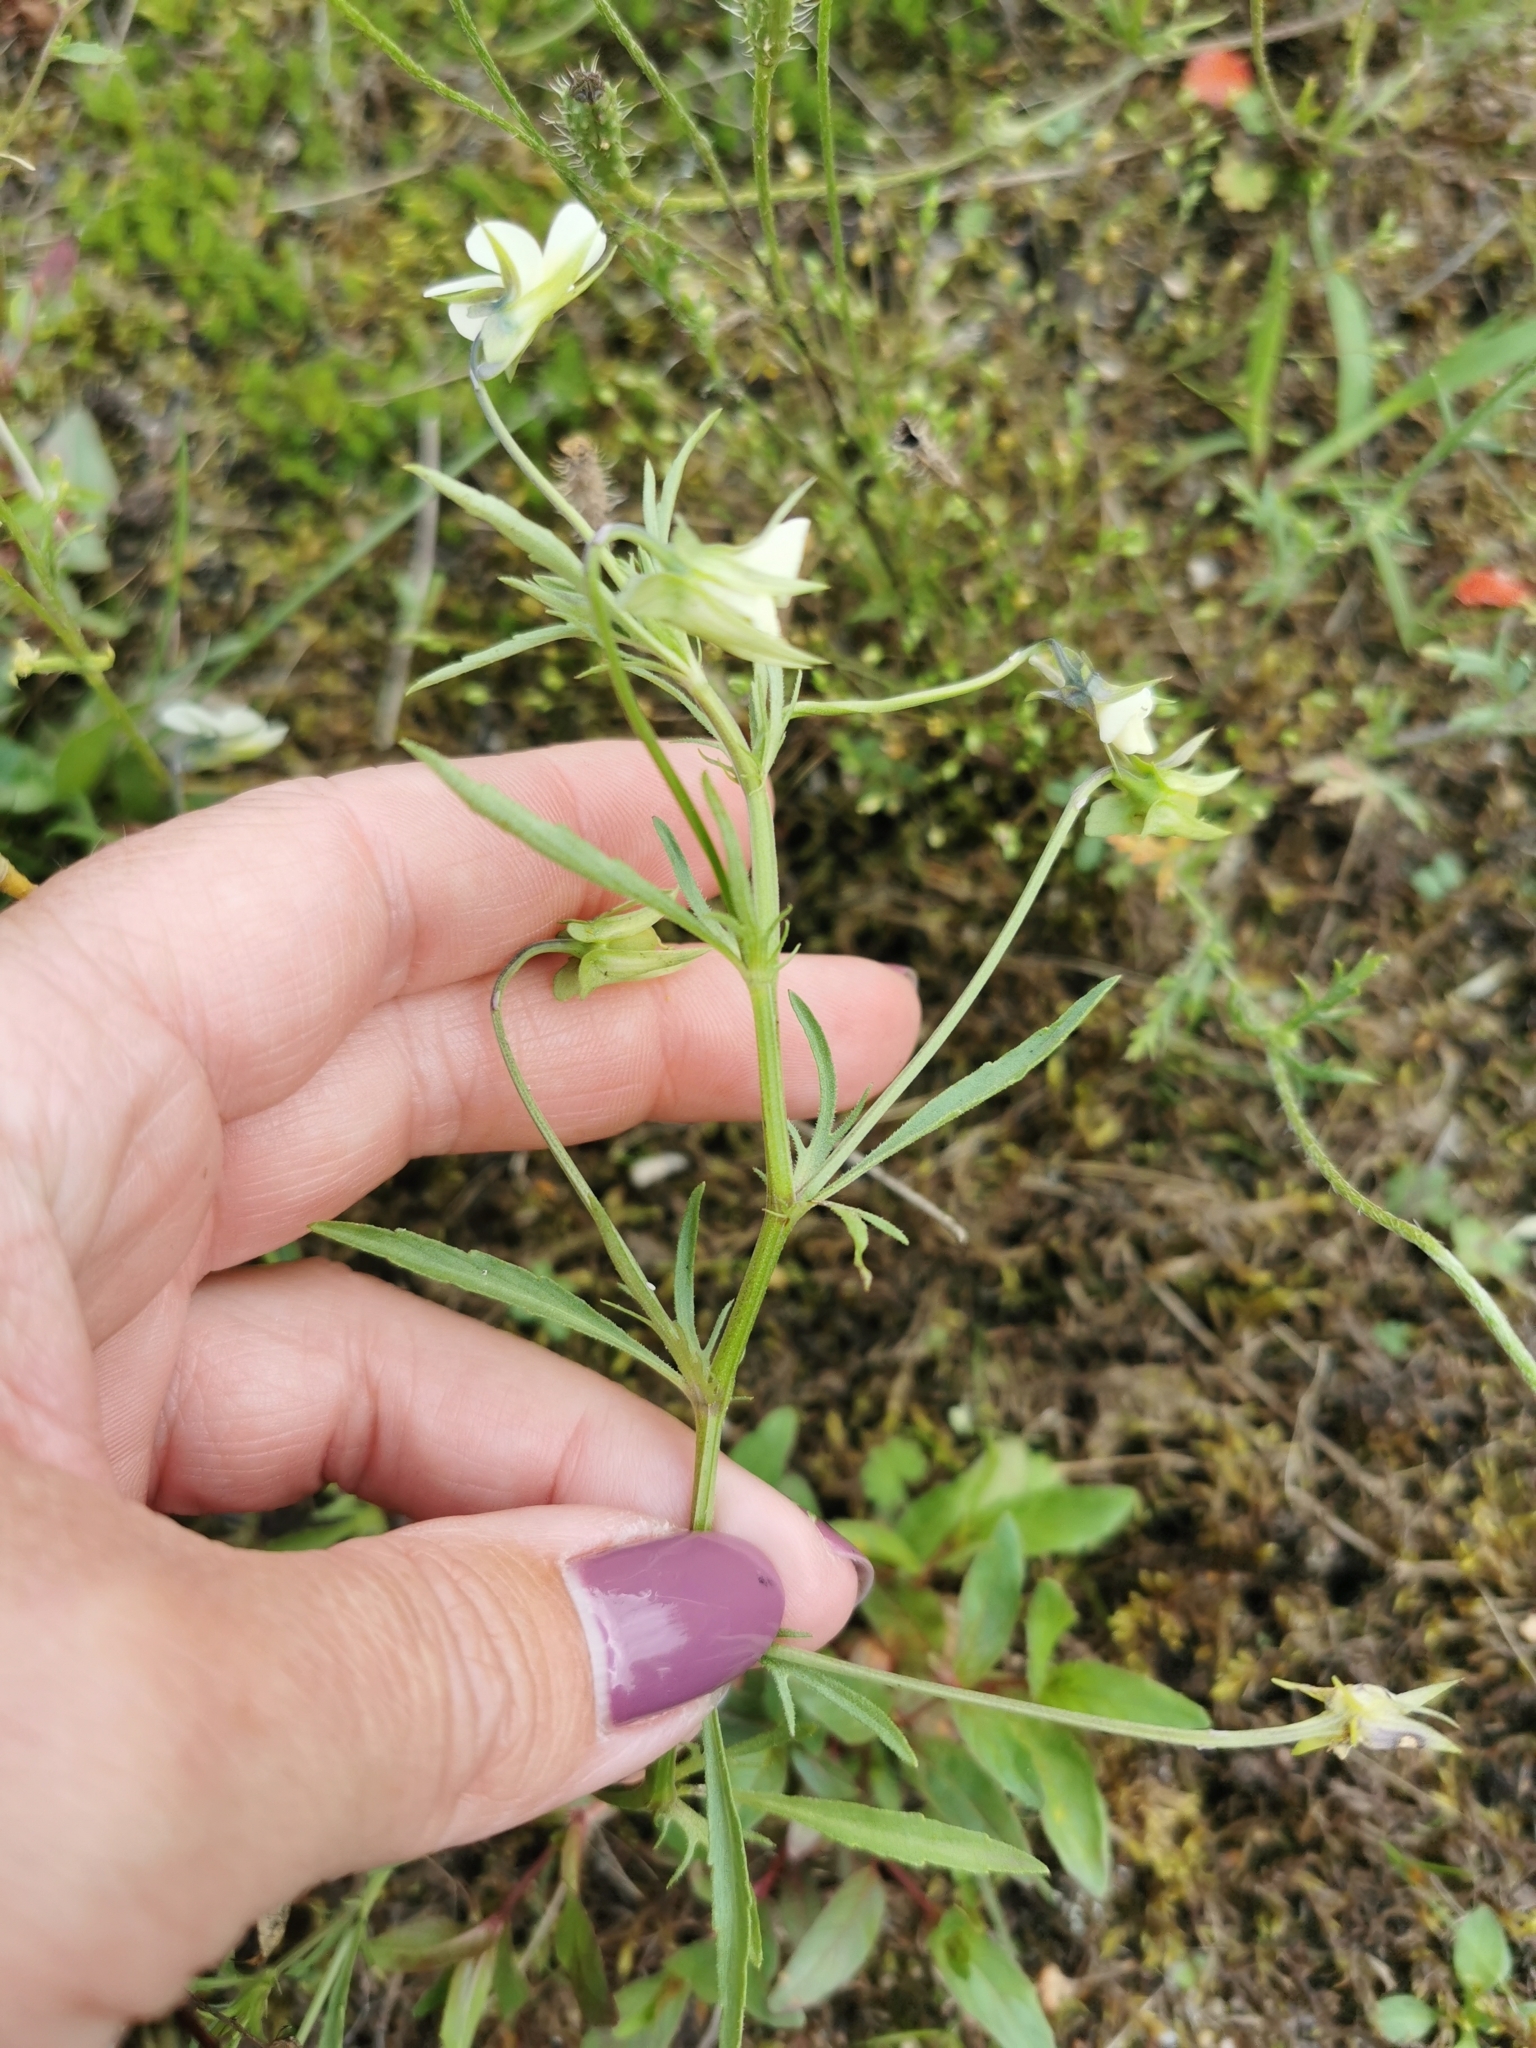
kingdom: Plantae
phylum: Tracheophyta
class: Magnoliopsida
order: Malpighiales
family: Violaceae
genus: Viola
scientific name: Viola arvensis
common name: Field pansy
